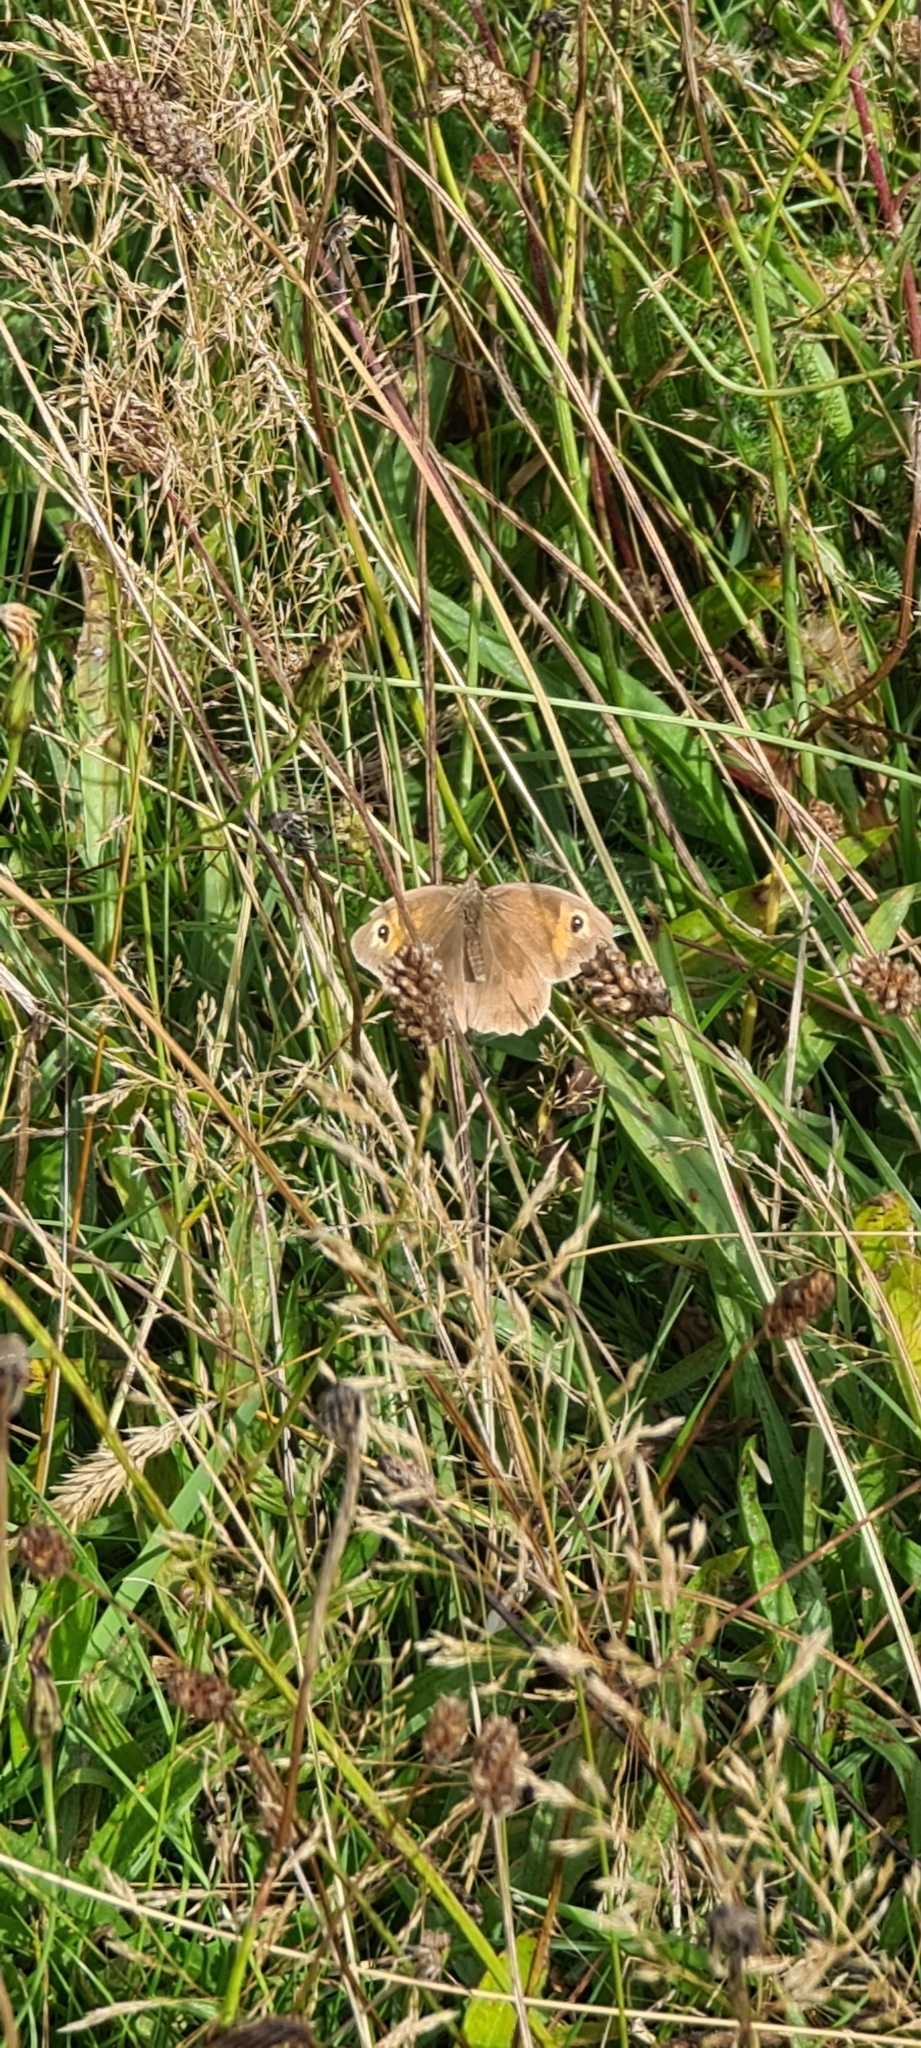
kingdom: Animalia
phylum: Arthropoda
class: Insecta
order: Lepidoptera
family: Nymphalidae
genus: Maniola
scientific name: Maniola jurtina
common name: Meadow brown
